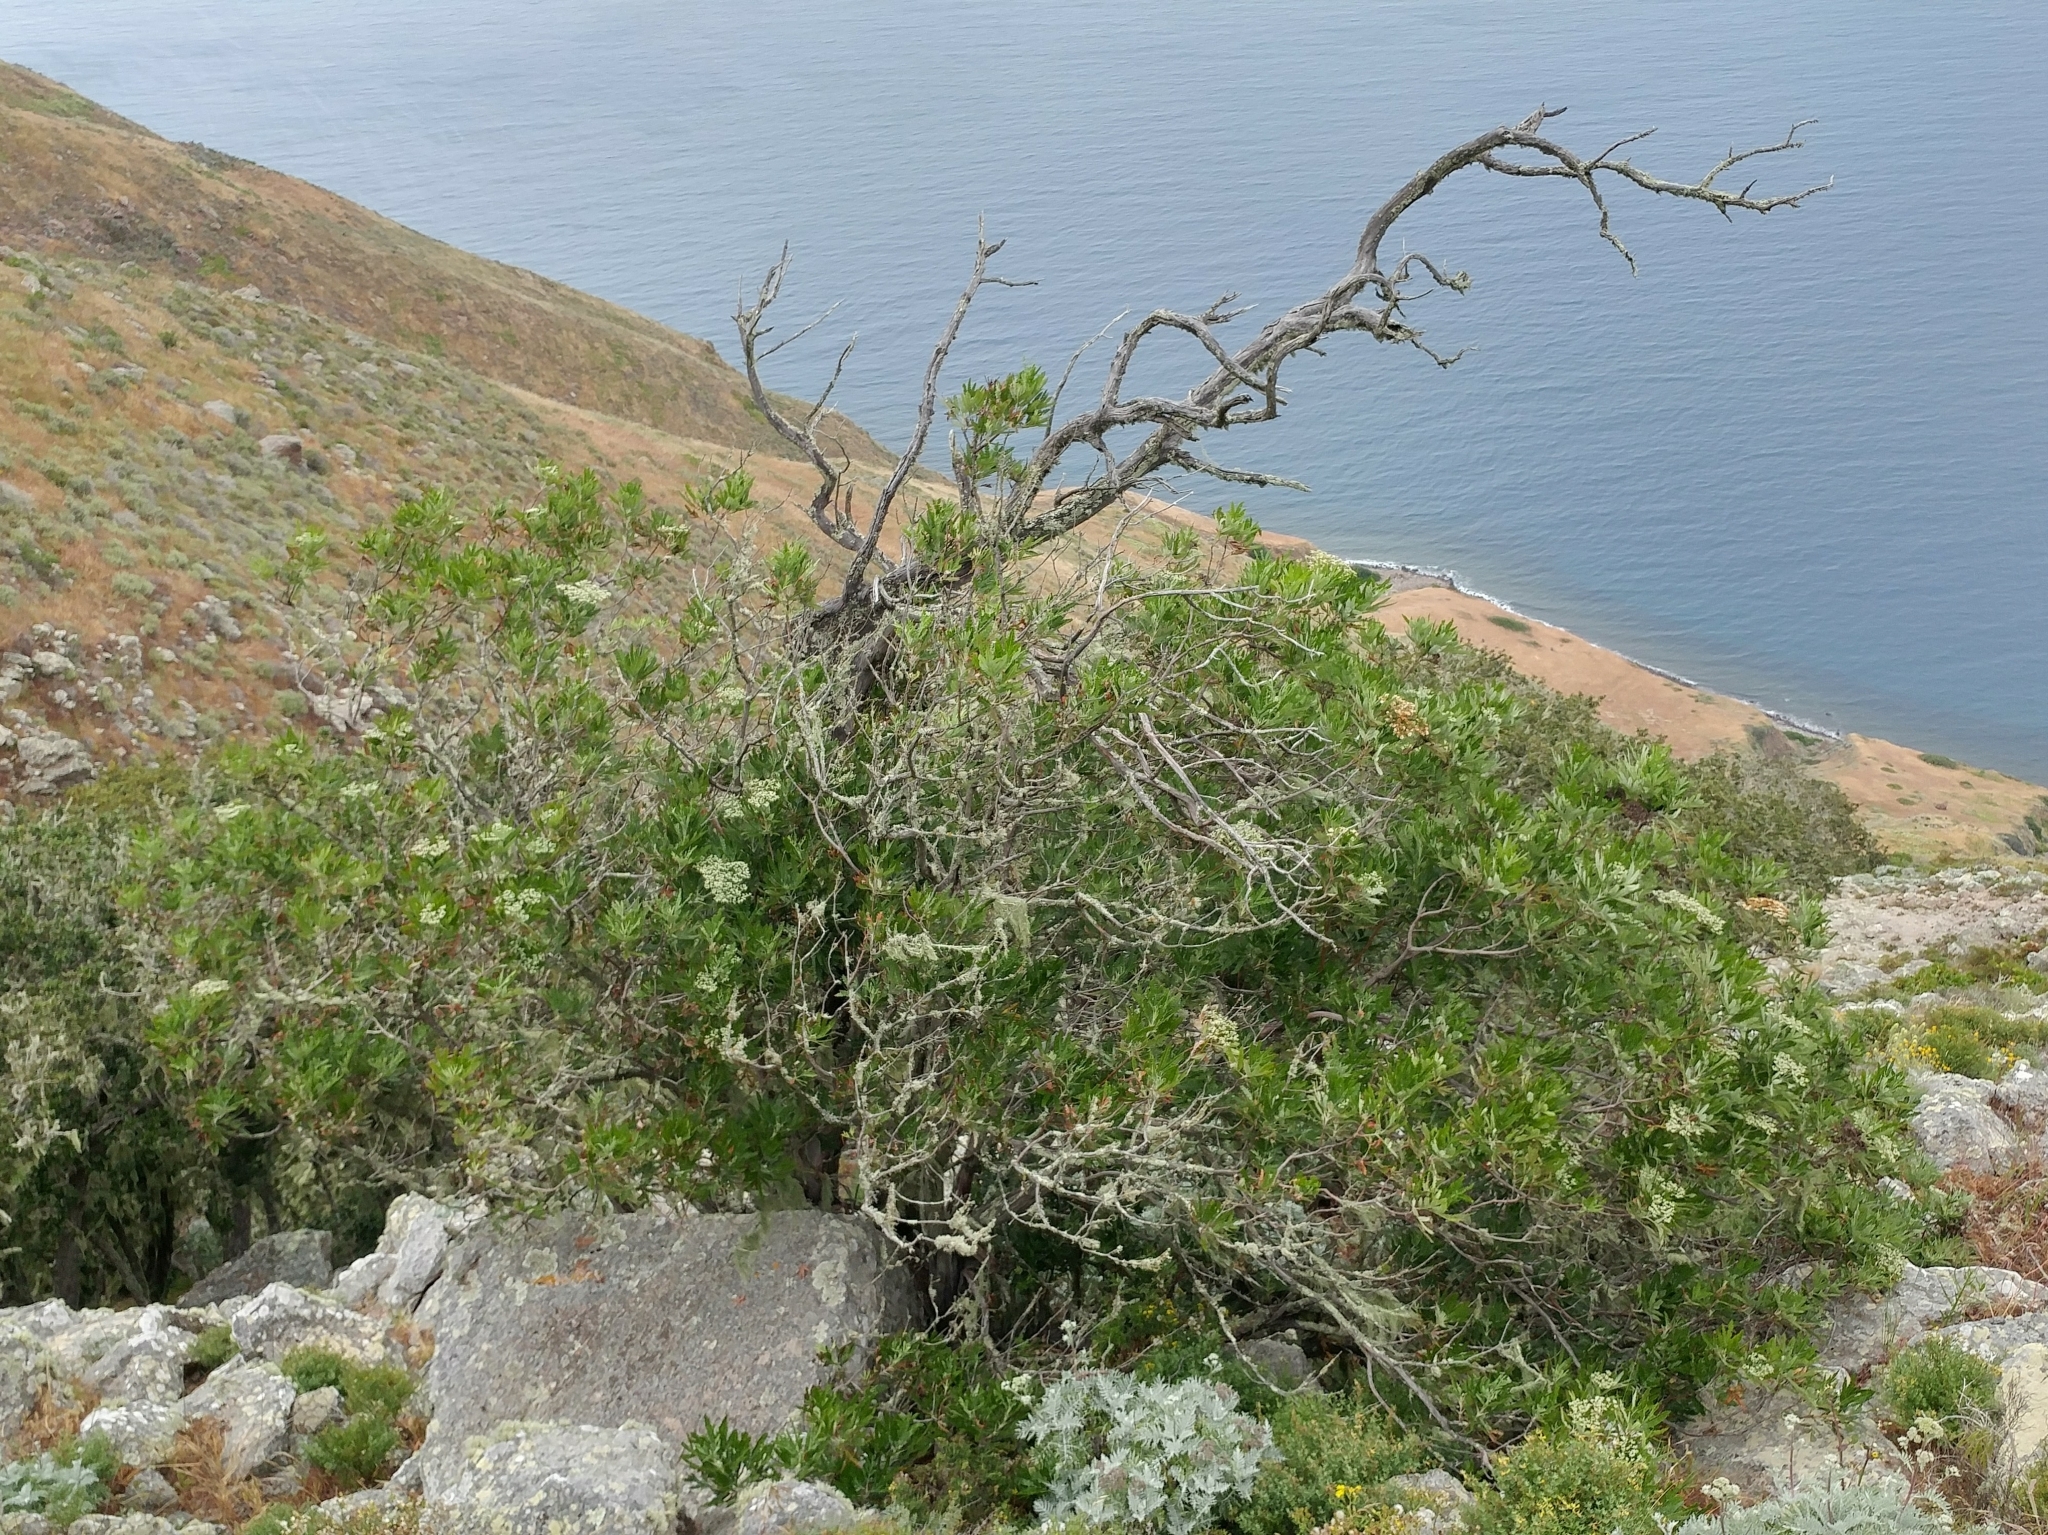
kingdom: Plantae
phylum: Tracheophyta
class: Magnoliopsida
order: Rosales
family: Rosaceae
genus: Lyonothamnus
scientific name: Lyonothamnus floribundus
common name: Catalina ironwood
